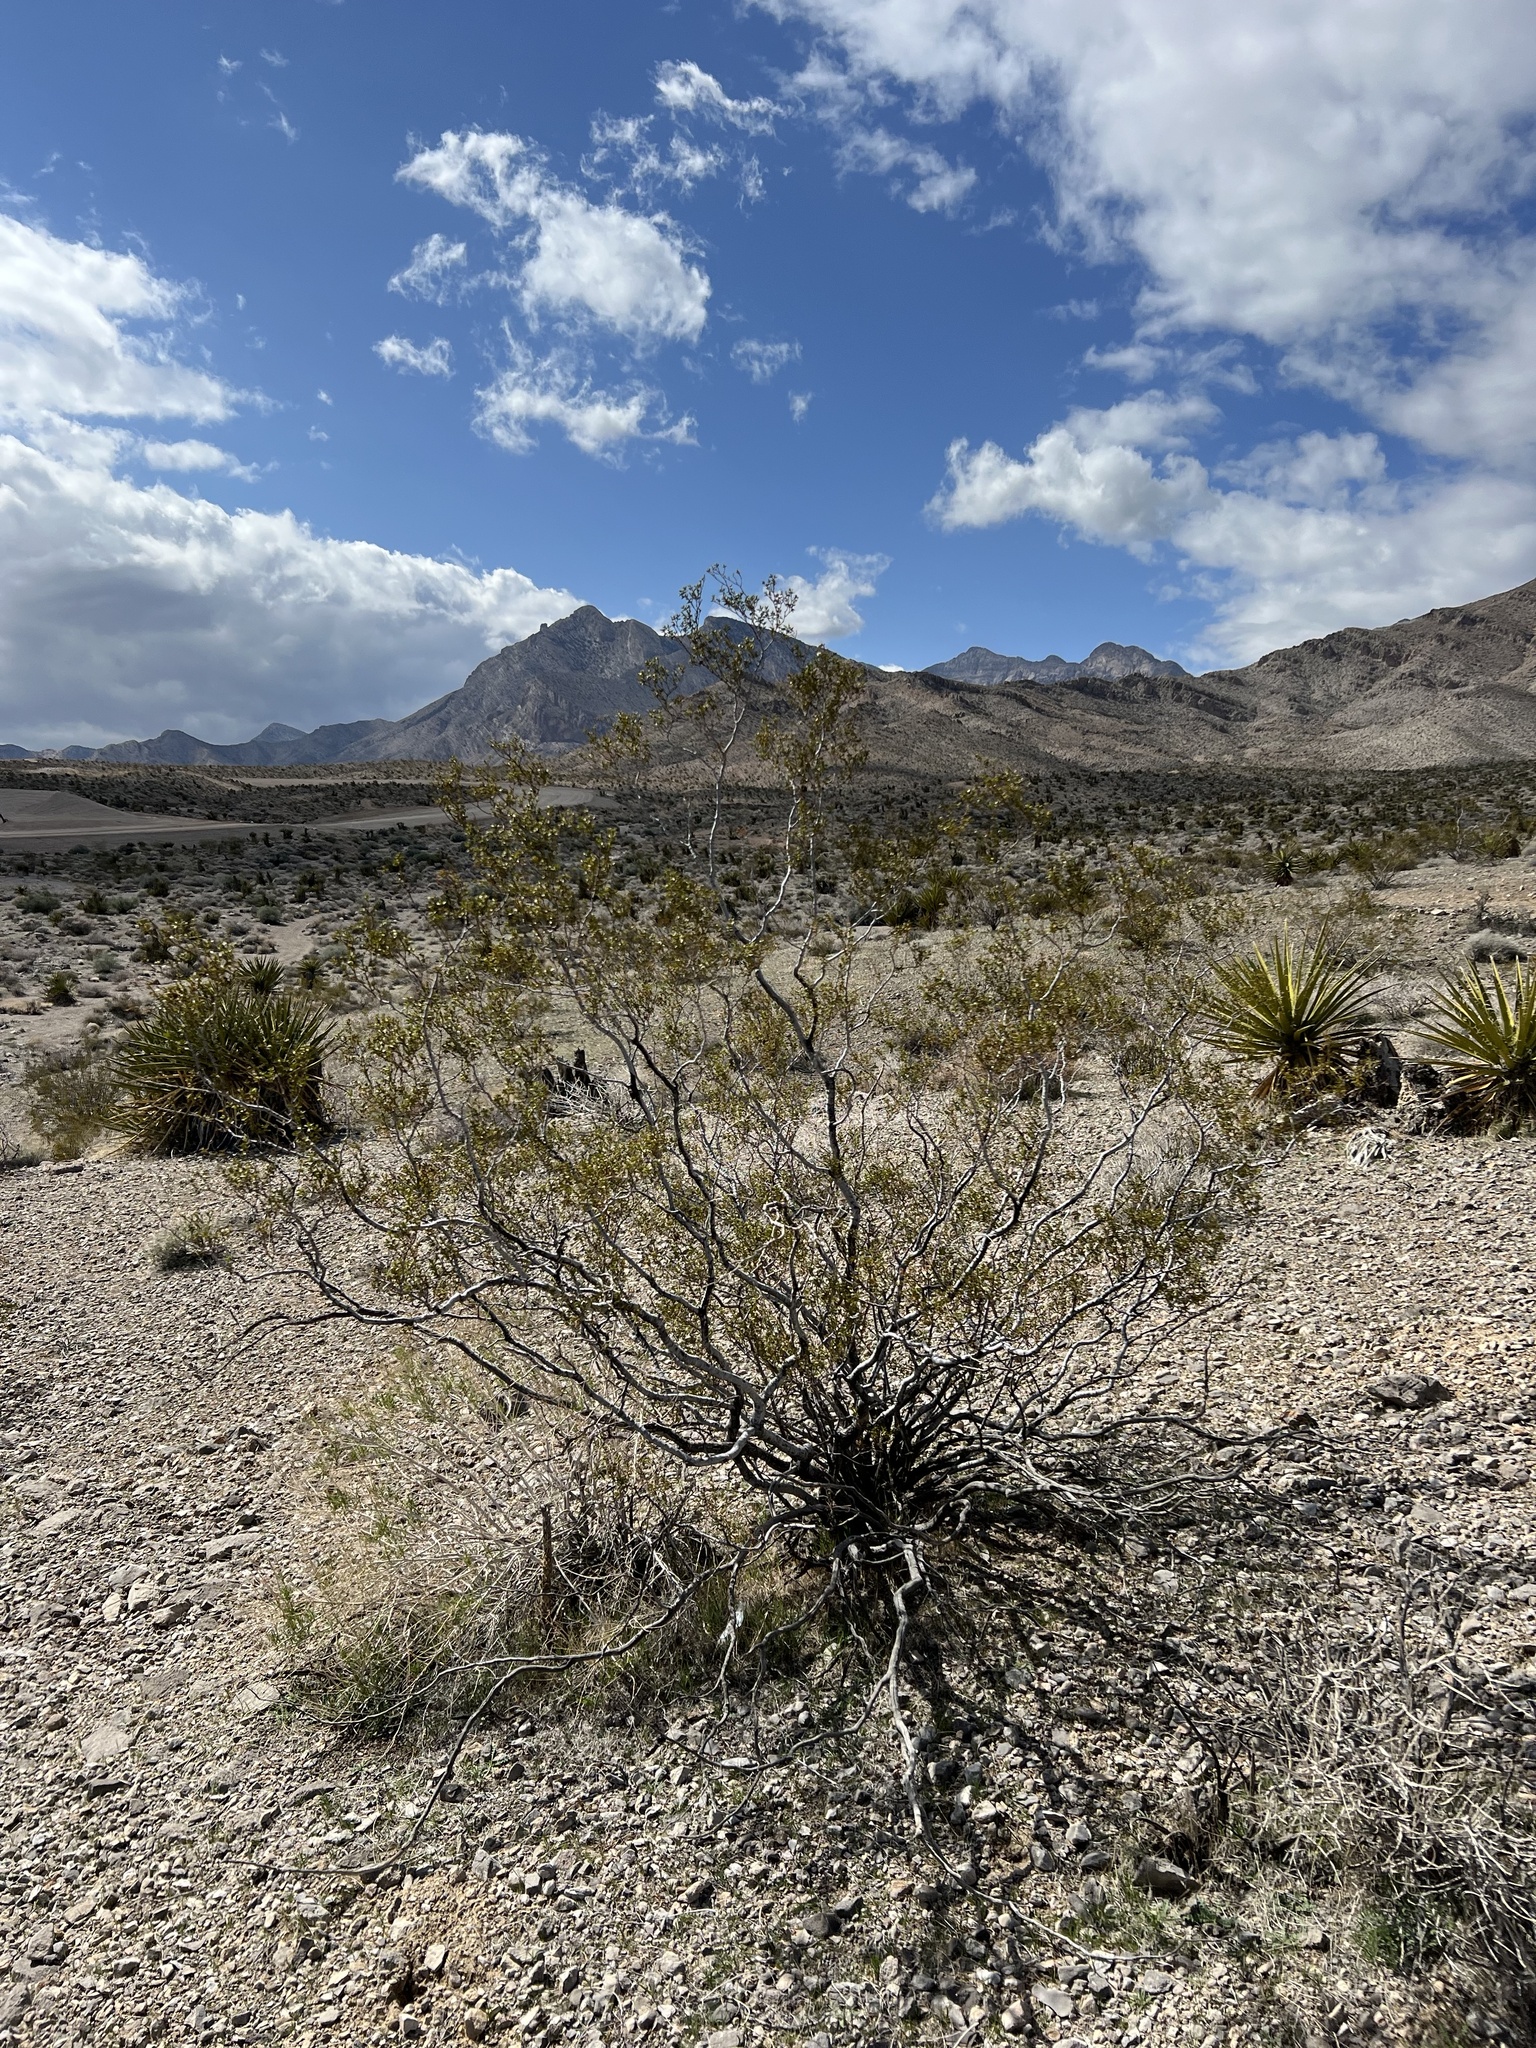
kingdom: Plantae
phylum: Tracheophyta
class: Magnoliopsida
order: Zygophyllales
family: Zygophyllaceae
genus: Larrea
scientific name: Larrea tridentata
